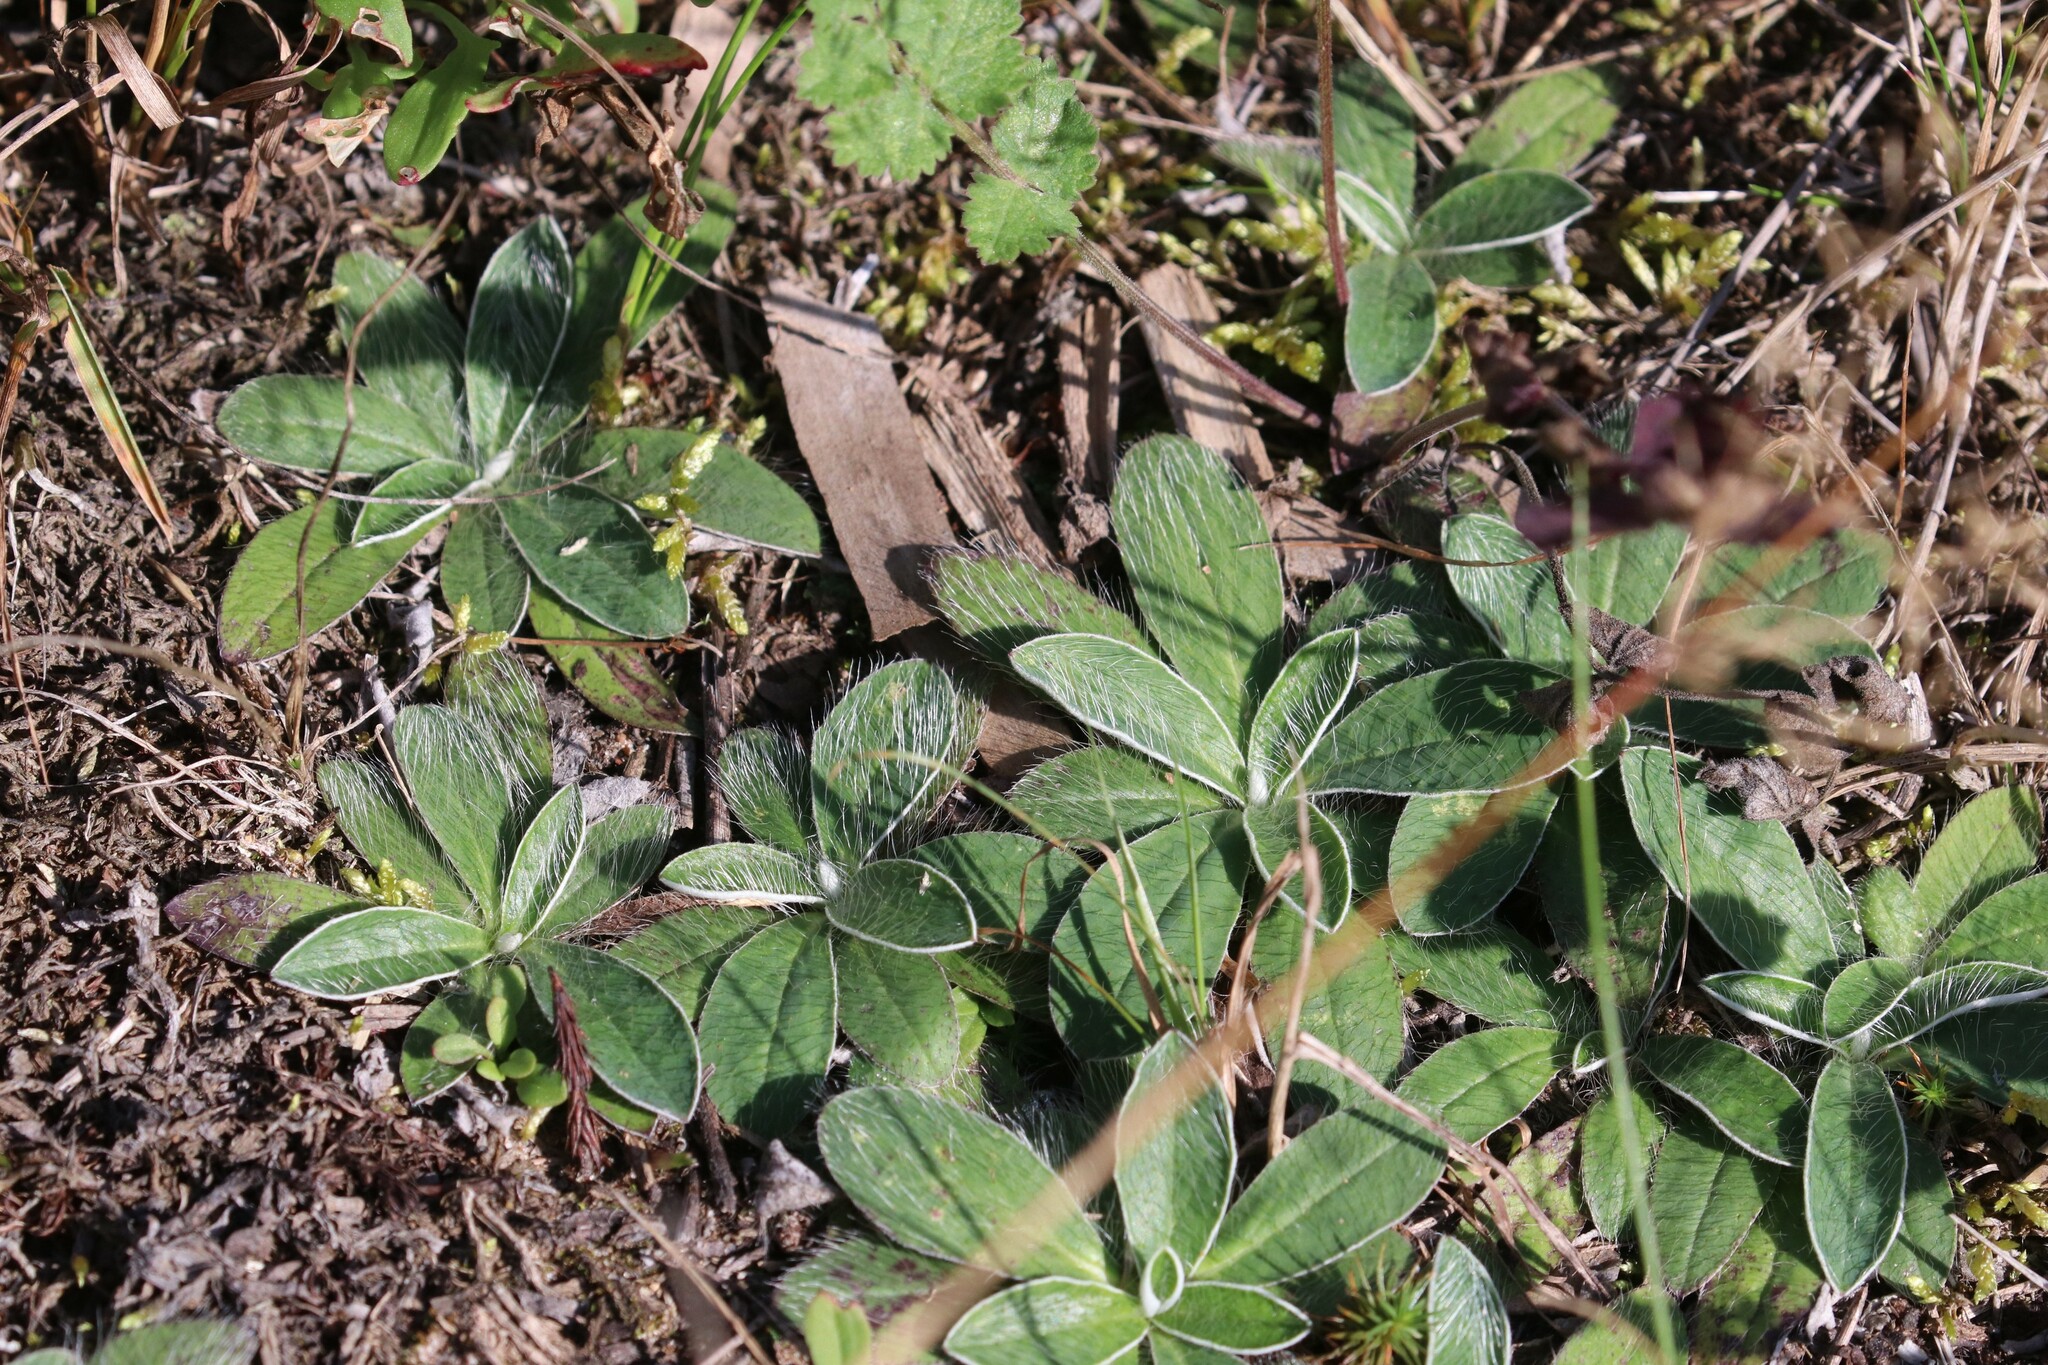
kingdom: Plantae
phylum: Tracheophyta
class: Magnoliopsida
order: Asterales
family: Asteraceae
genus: Pilosella
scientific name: Pilosella officinarum
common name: Mouse-ear hawkweed
